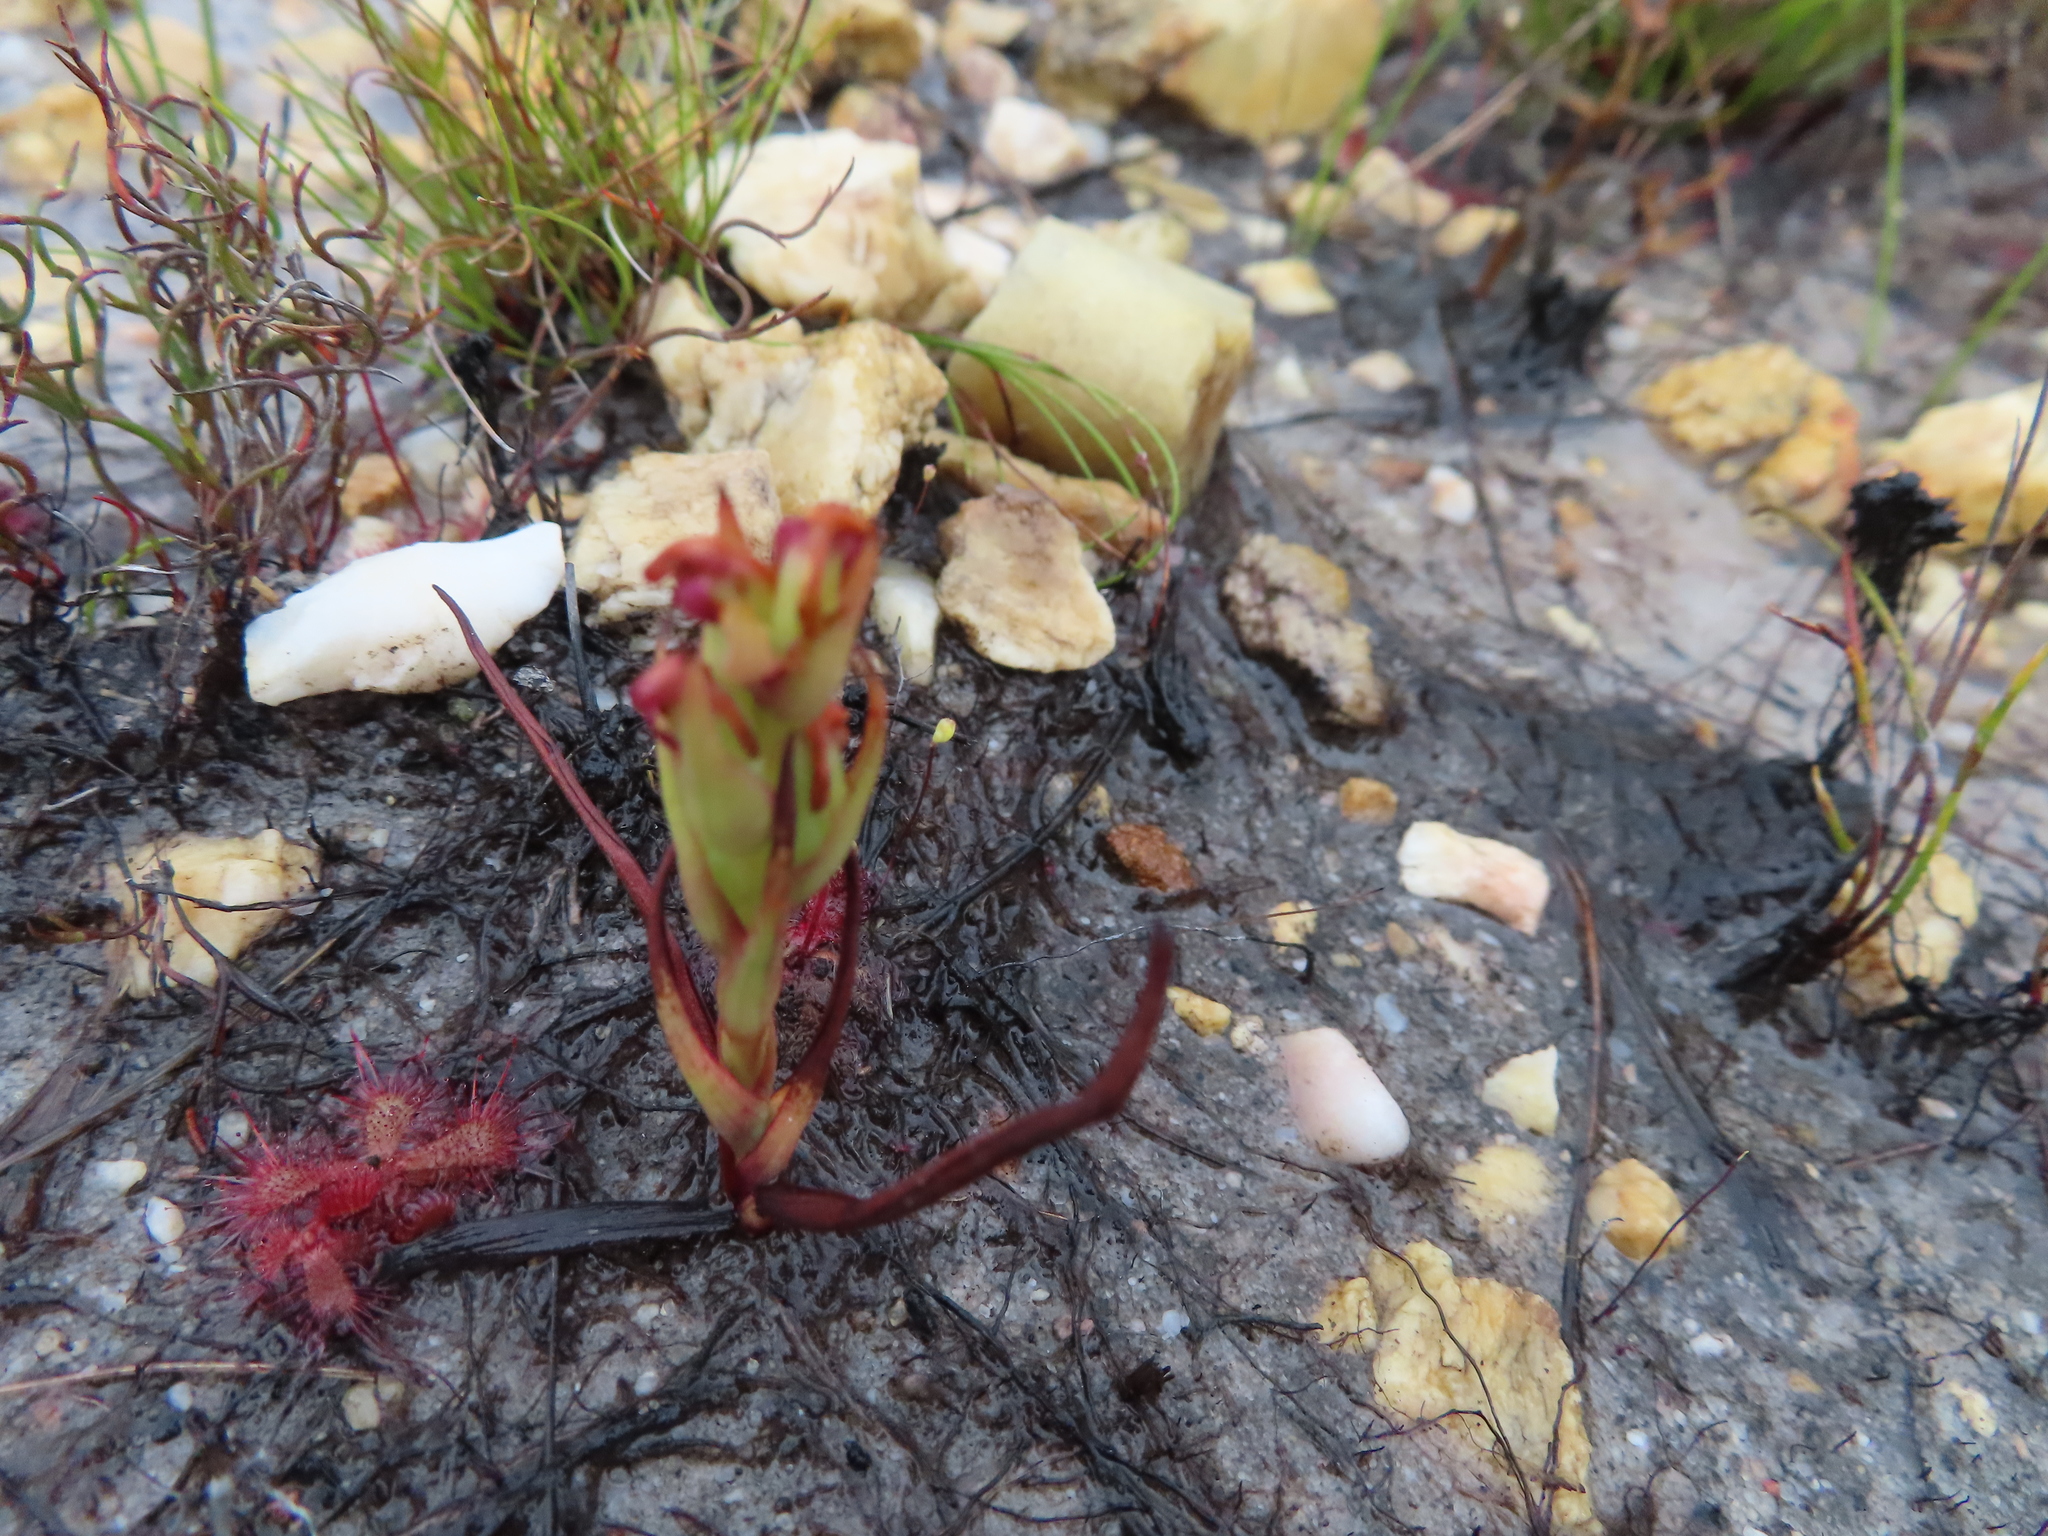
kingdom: Plantae
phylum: Tracheophyta
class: Liliopsida
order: Asparagales
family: Orchidaceae
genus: Disa
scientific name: Disa bracteata
